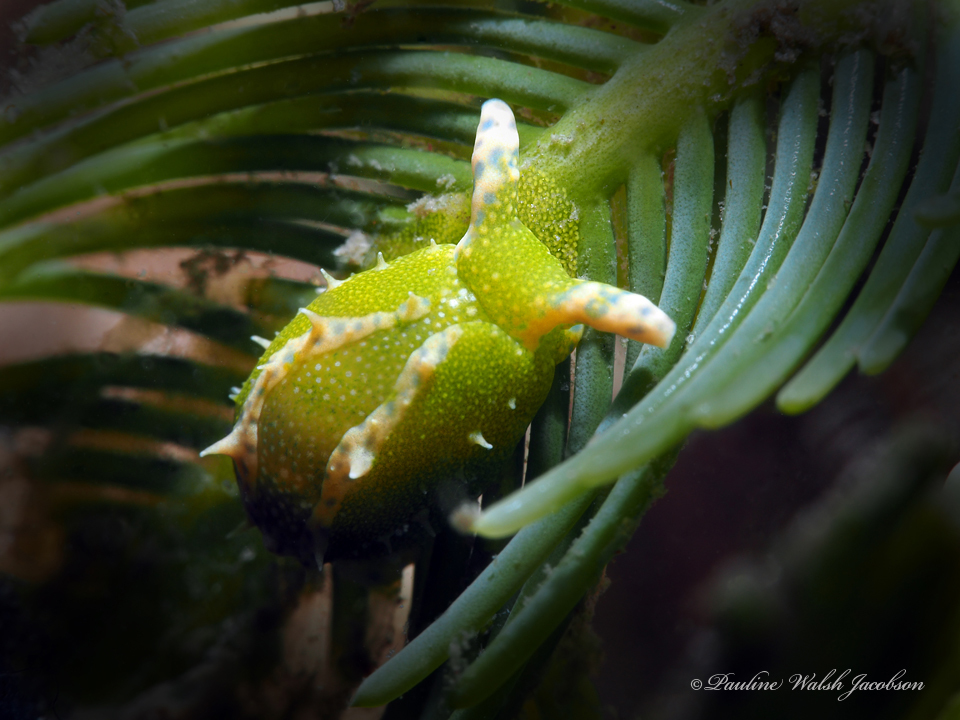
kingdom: Animalia
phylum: Mollusca
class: Gastropoda
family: Oxynoidae
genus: Oxynoe
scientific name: Oxynoe antillarum
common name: Antilles oxynoe
